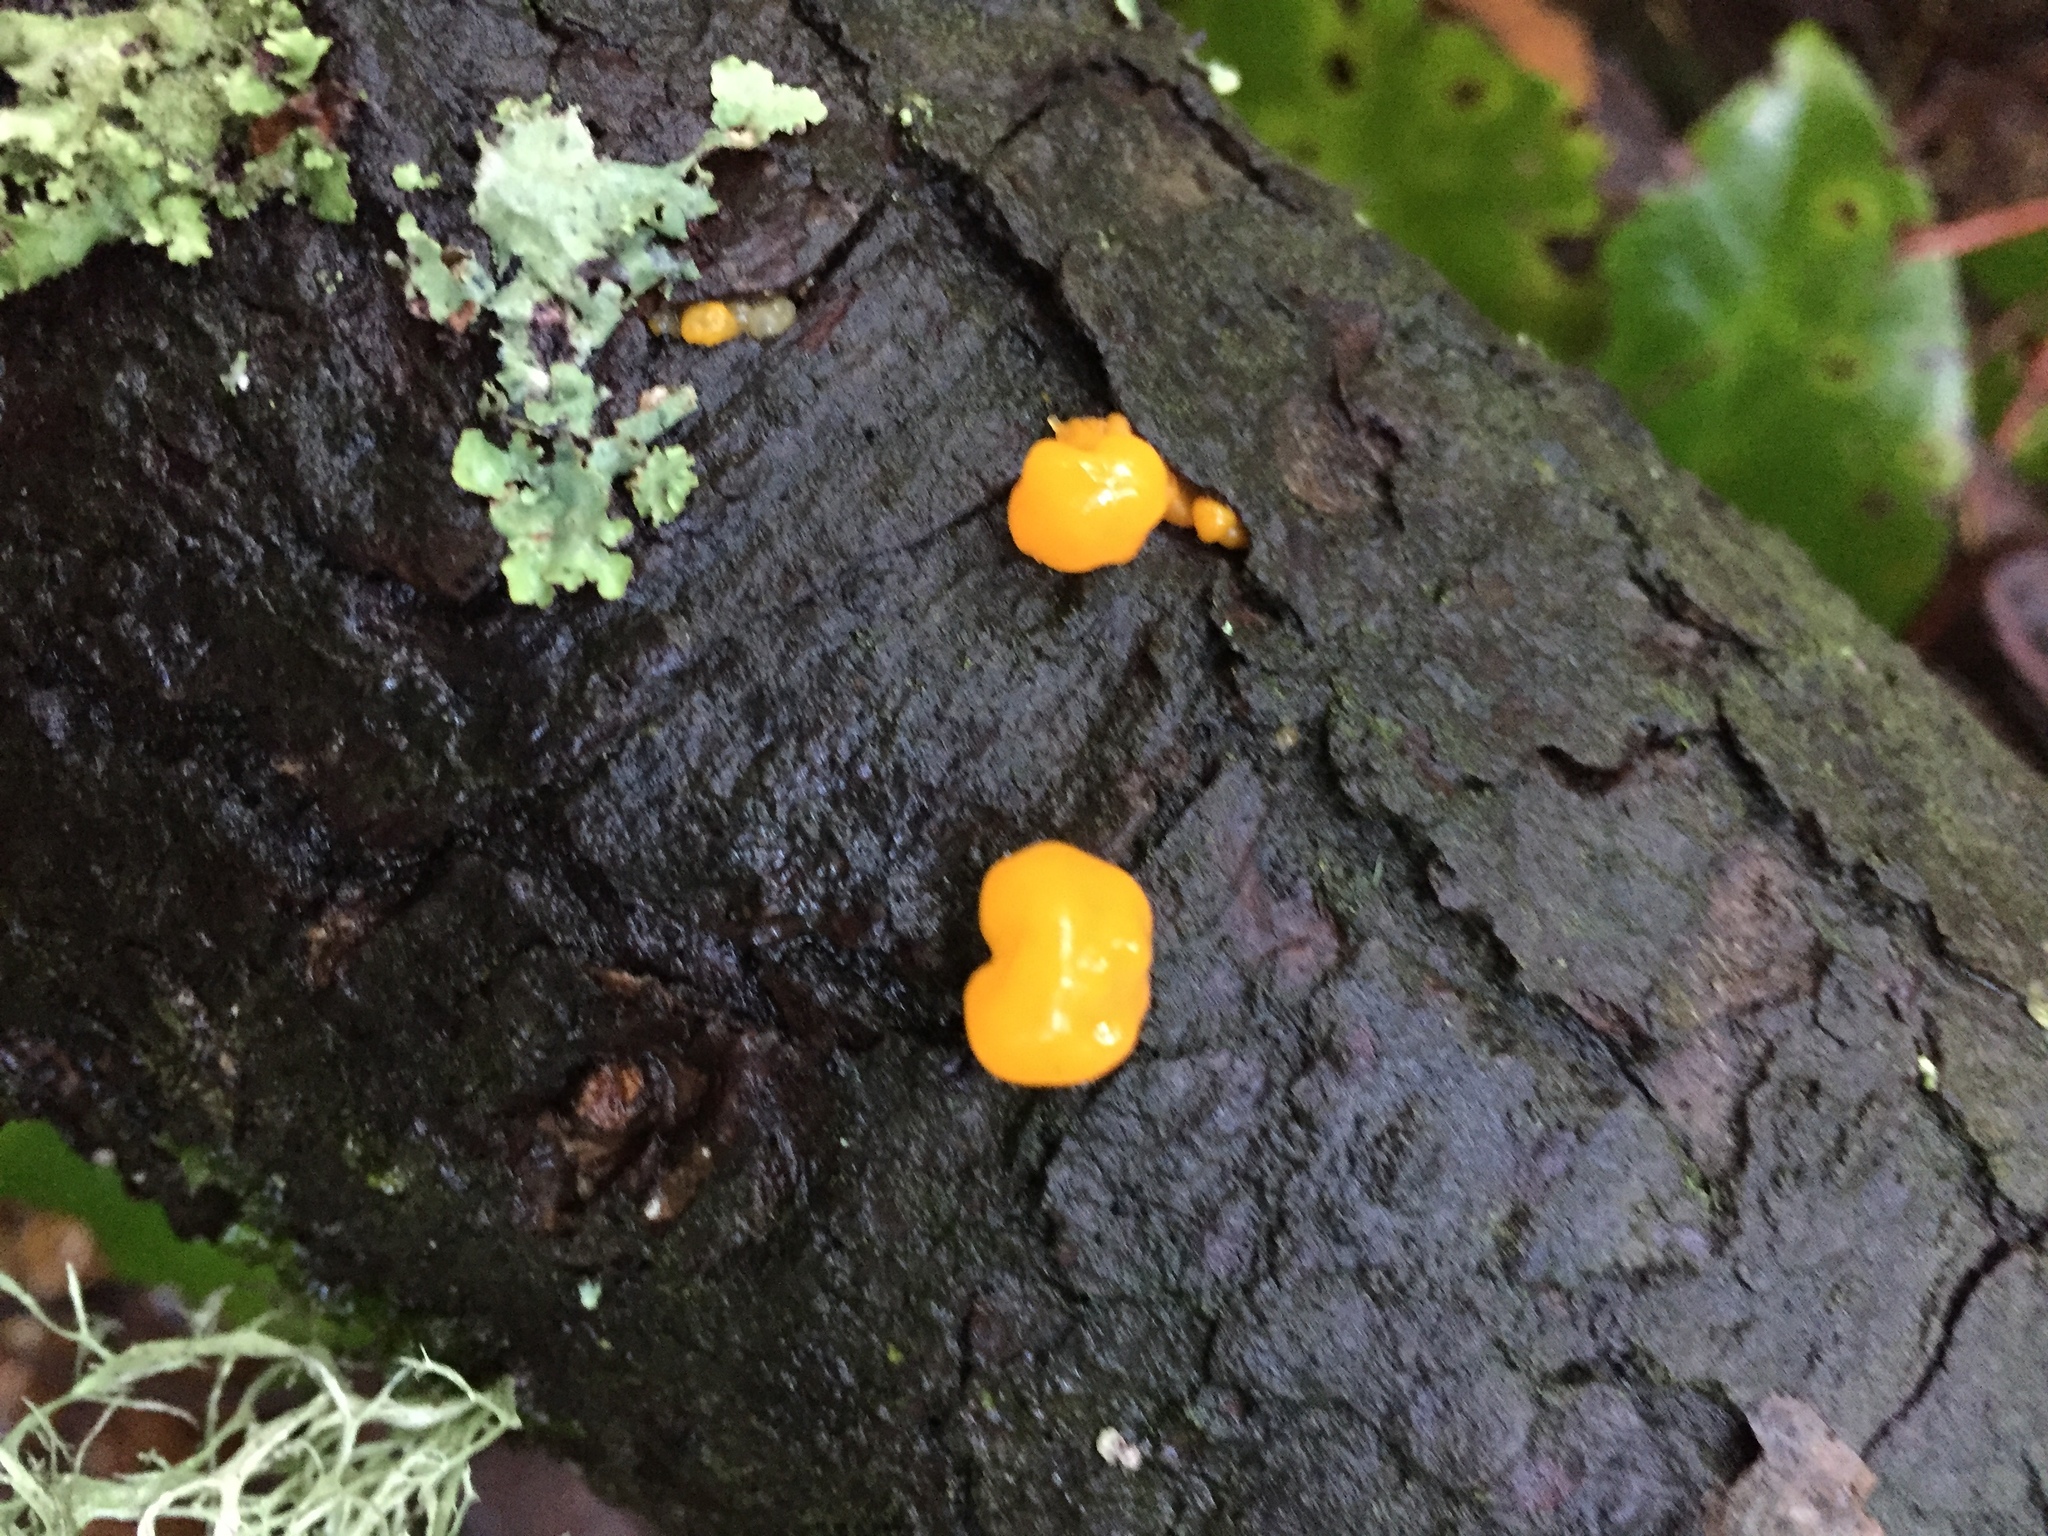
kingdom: Fungi
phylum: Basidiomycota
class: Dacrymycetes
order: Dacrymycetales
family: Dacrymycetaceae
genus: Dacrymyces
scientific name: Dacrymyces chrysospermus
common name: Orange jelly spot
